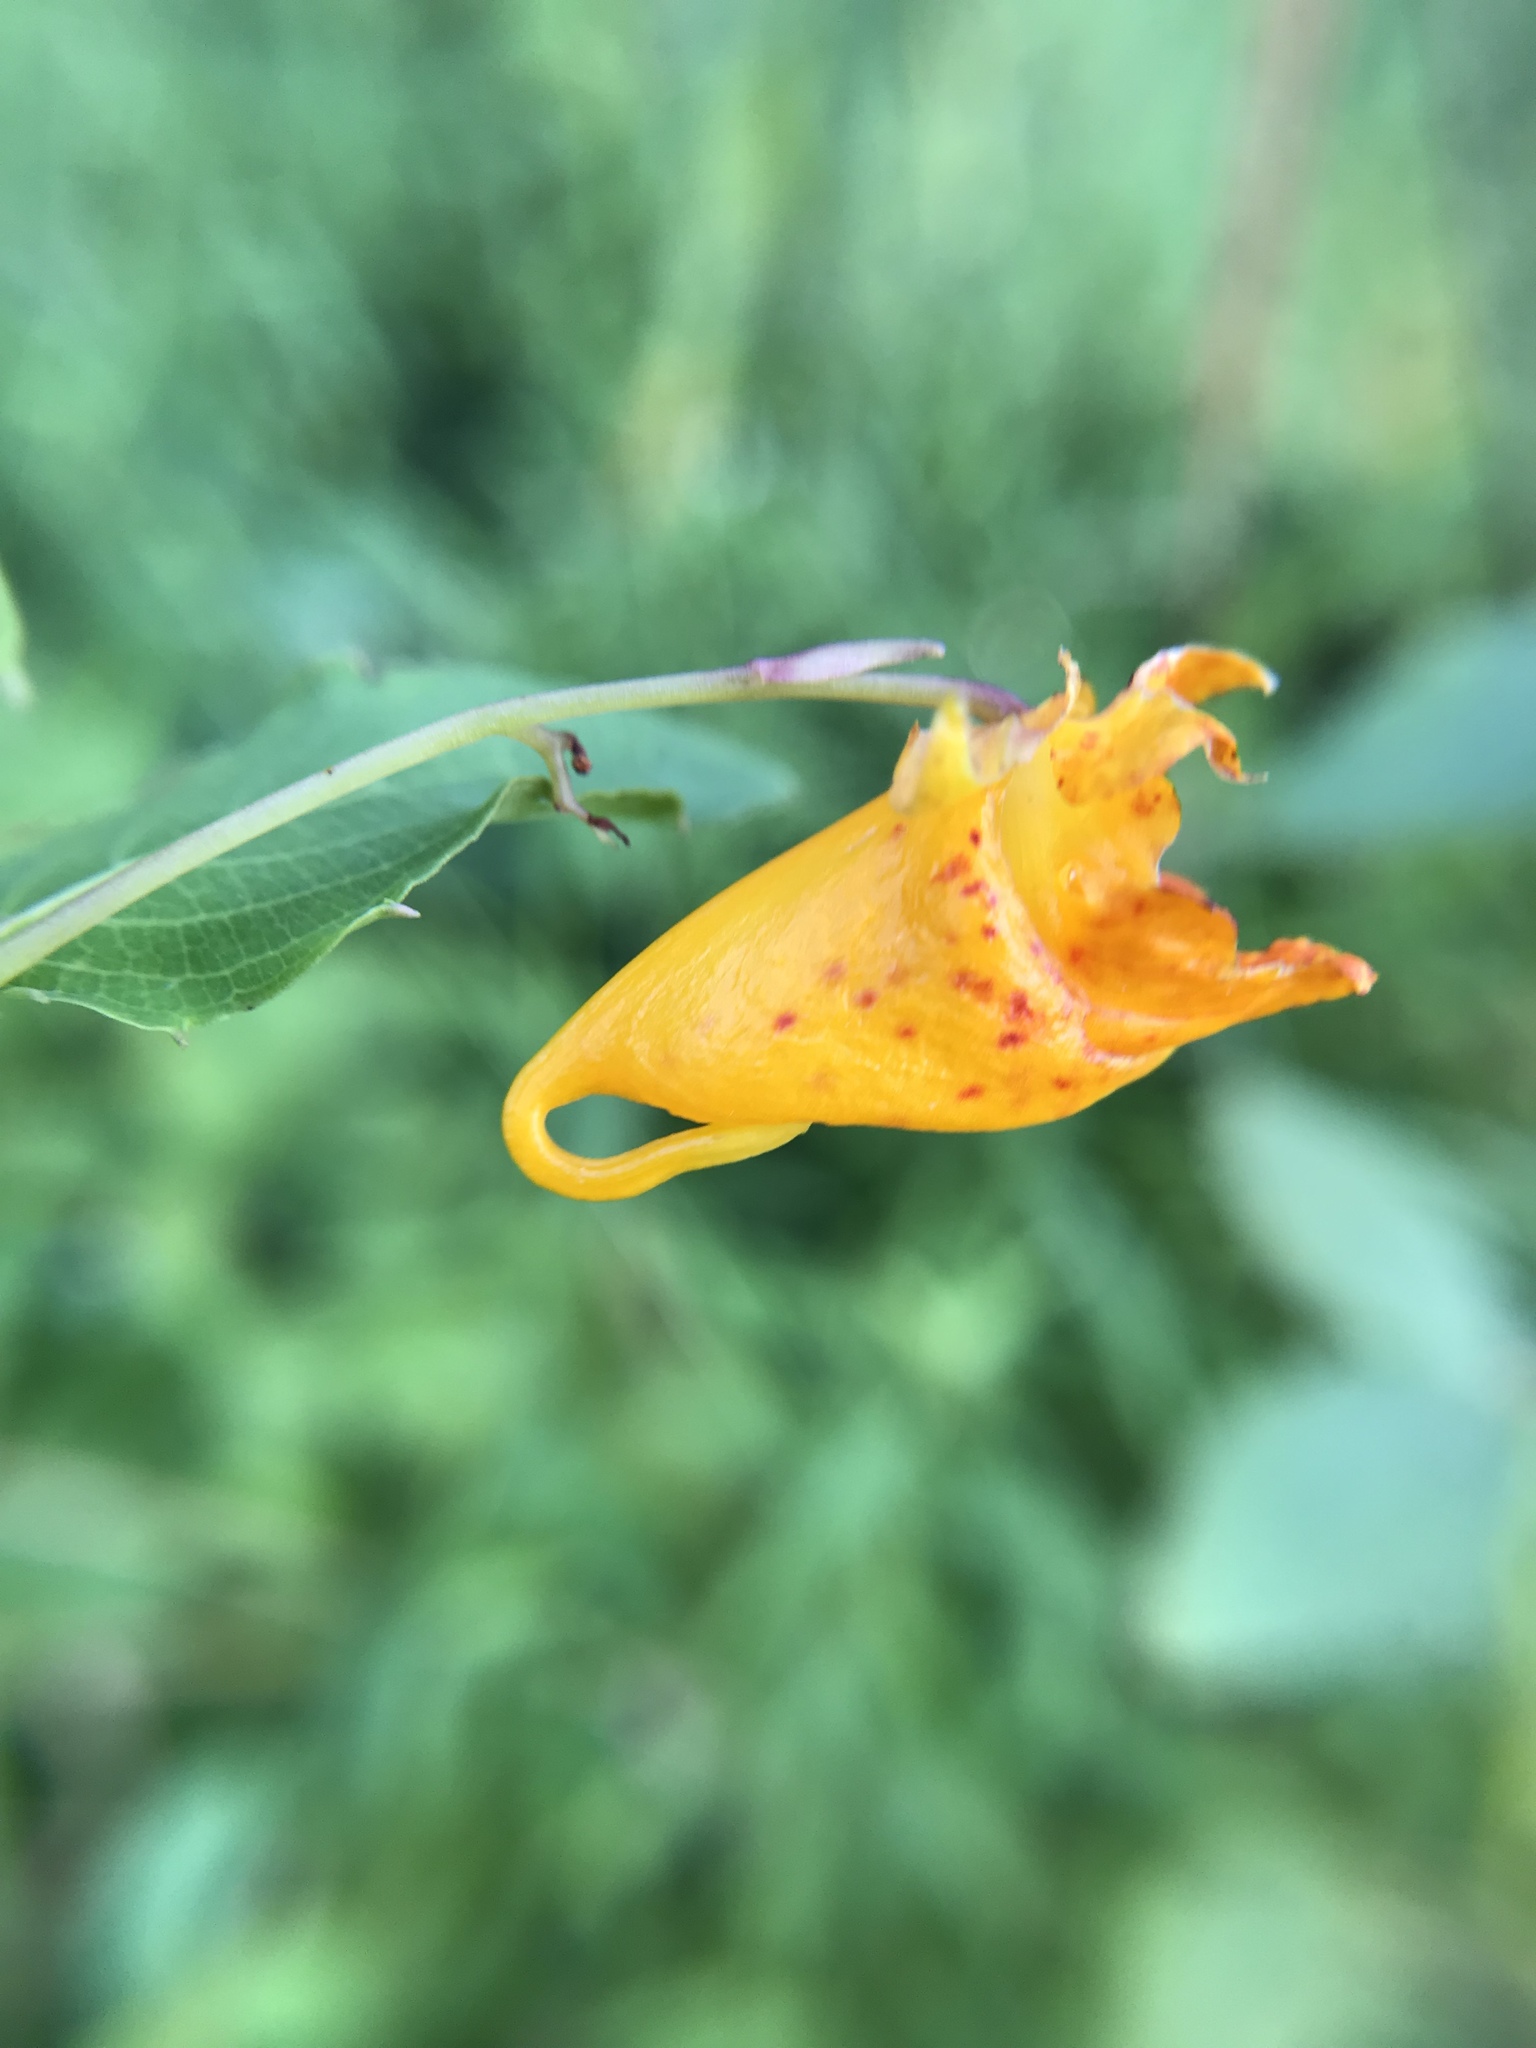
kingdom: Plantae
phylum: Tracheophyta
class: Magnoliopsida
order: Ericales
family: Balsaminaceae
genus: Impatiens
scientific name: Impatiens capensis
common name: Orange balsam
